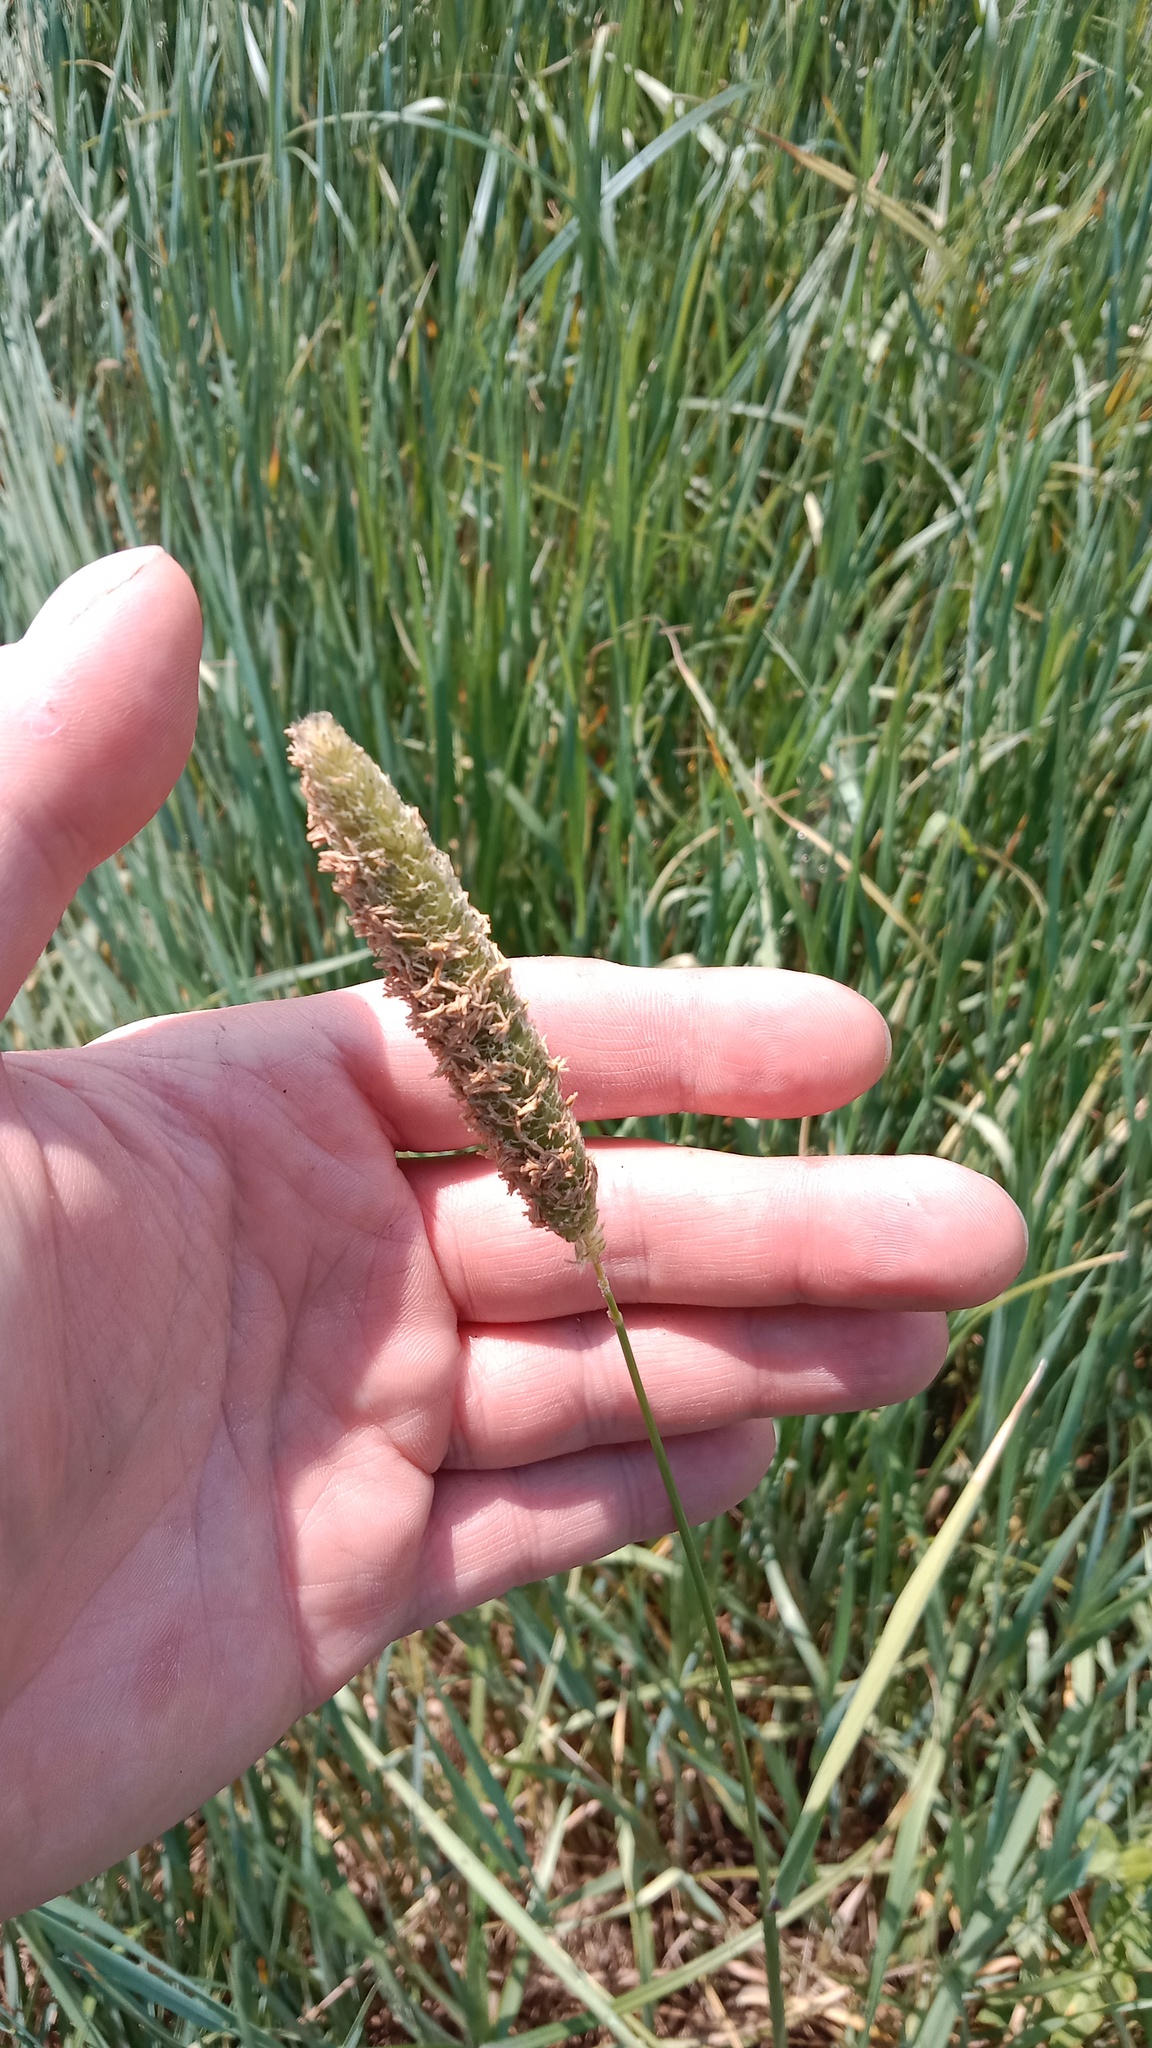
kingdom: Plantae
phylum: Tracheophyta
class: Liliopsida
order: Poales
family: Poaceae
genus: Alopecurus
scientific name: Alopecurus arundinaceus
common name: Creeping meadow foxtail
